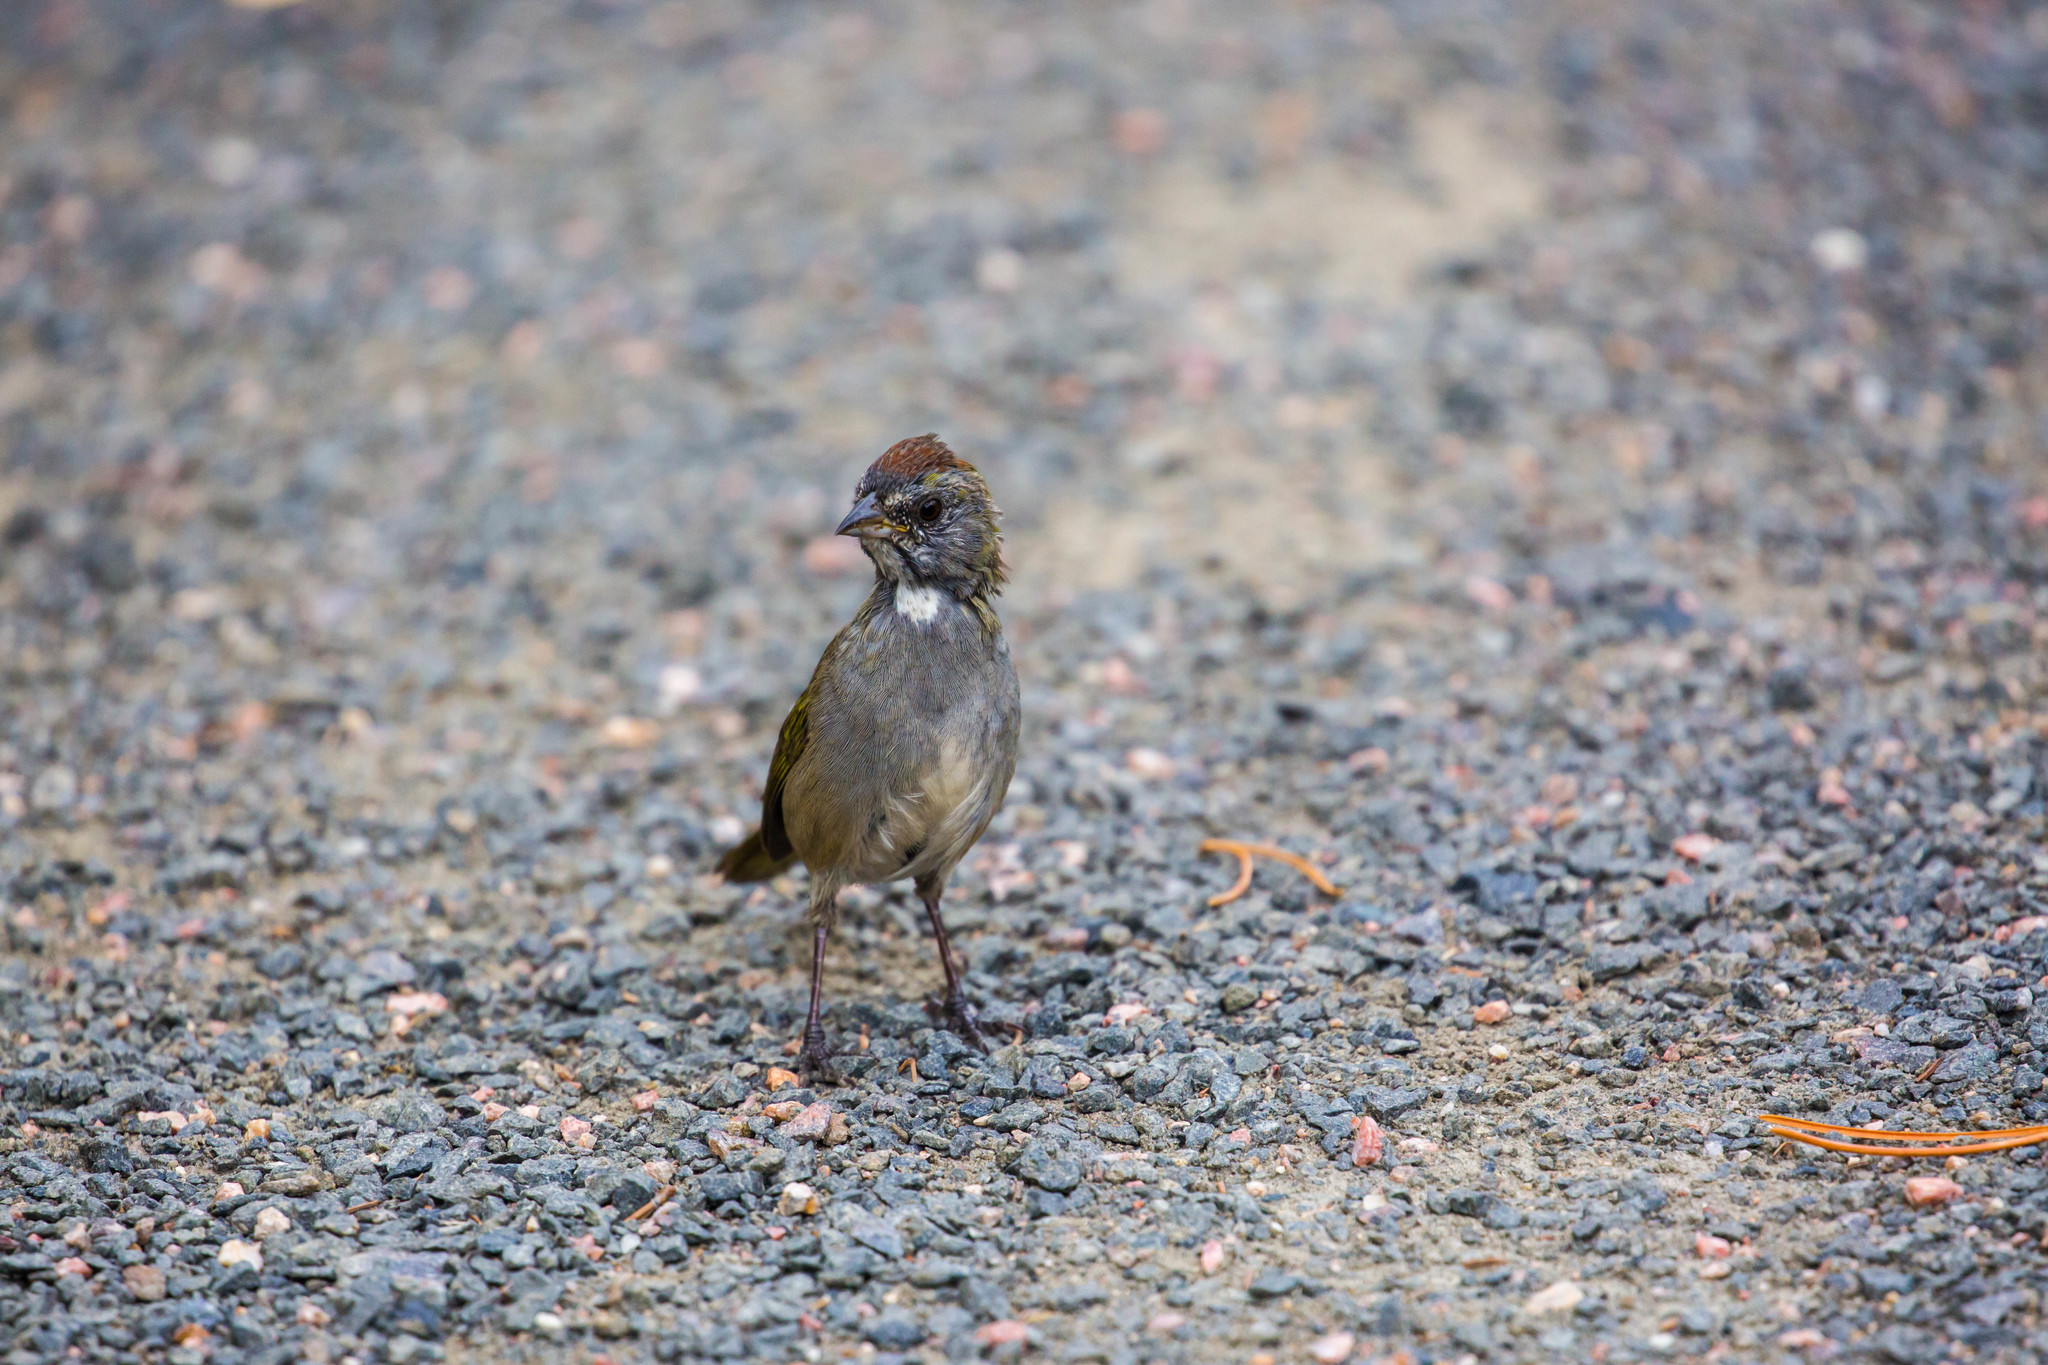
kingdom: Animalia
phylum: Chordata
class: Aves
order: Passeriformes
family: Passerellidae
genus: Pipilo
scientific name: Pipilo chlorurus
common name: Green-tailed towhee
